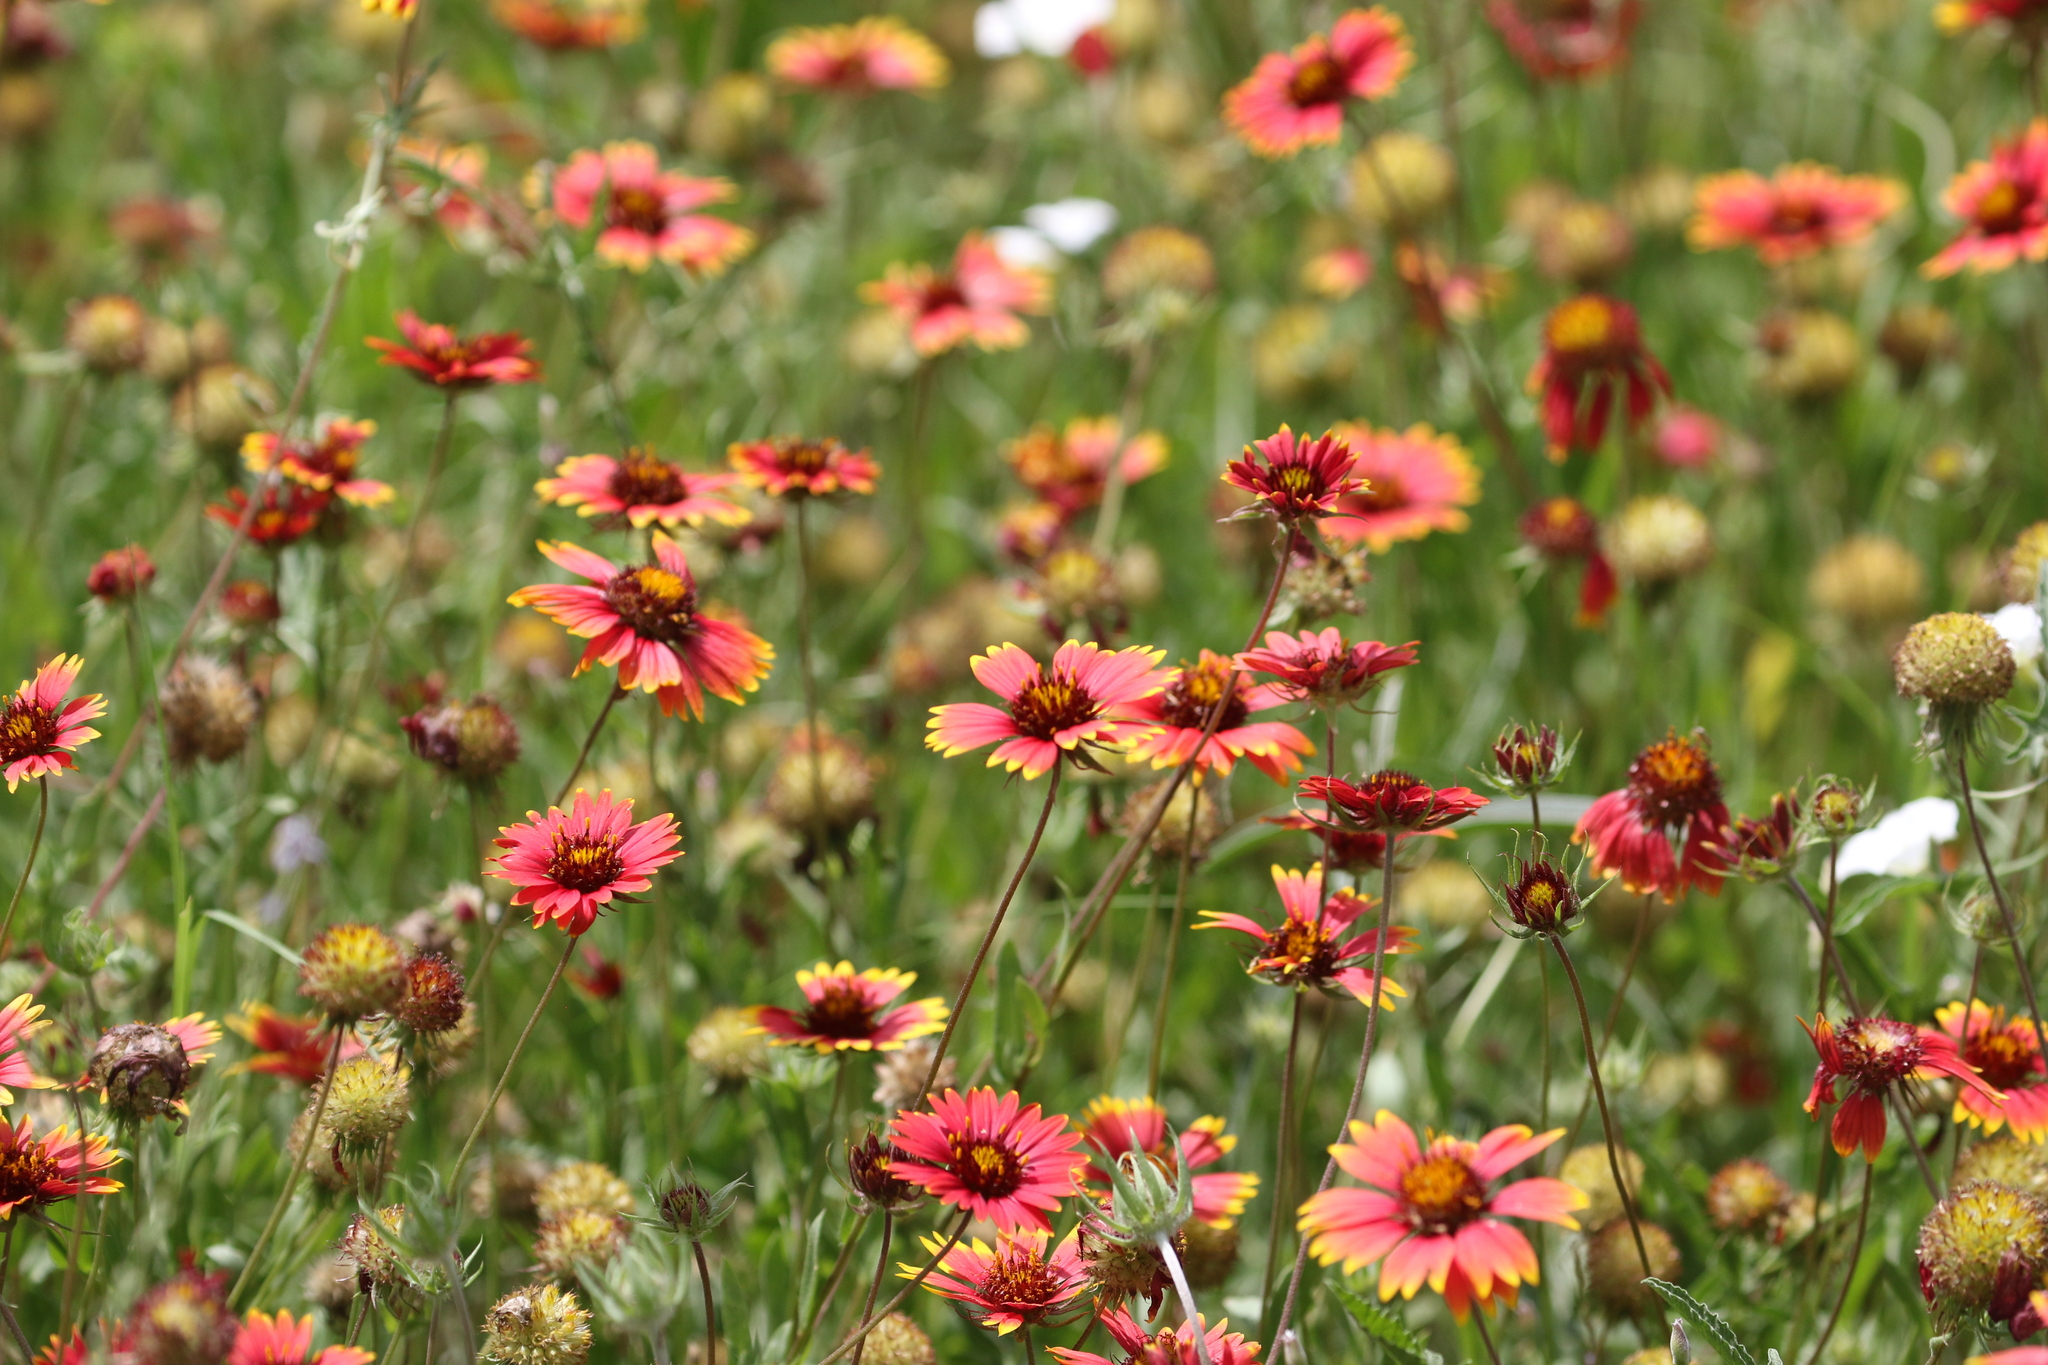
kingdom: Plantae
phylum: Tracheophyta
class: Magnoliopsida
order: Asterales
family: Asteraceae
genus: Gaillardia
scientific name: Gaillardia pulchella
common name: Firewheel
